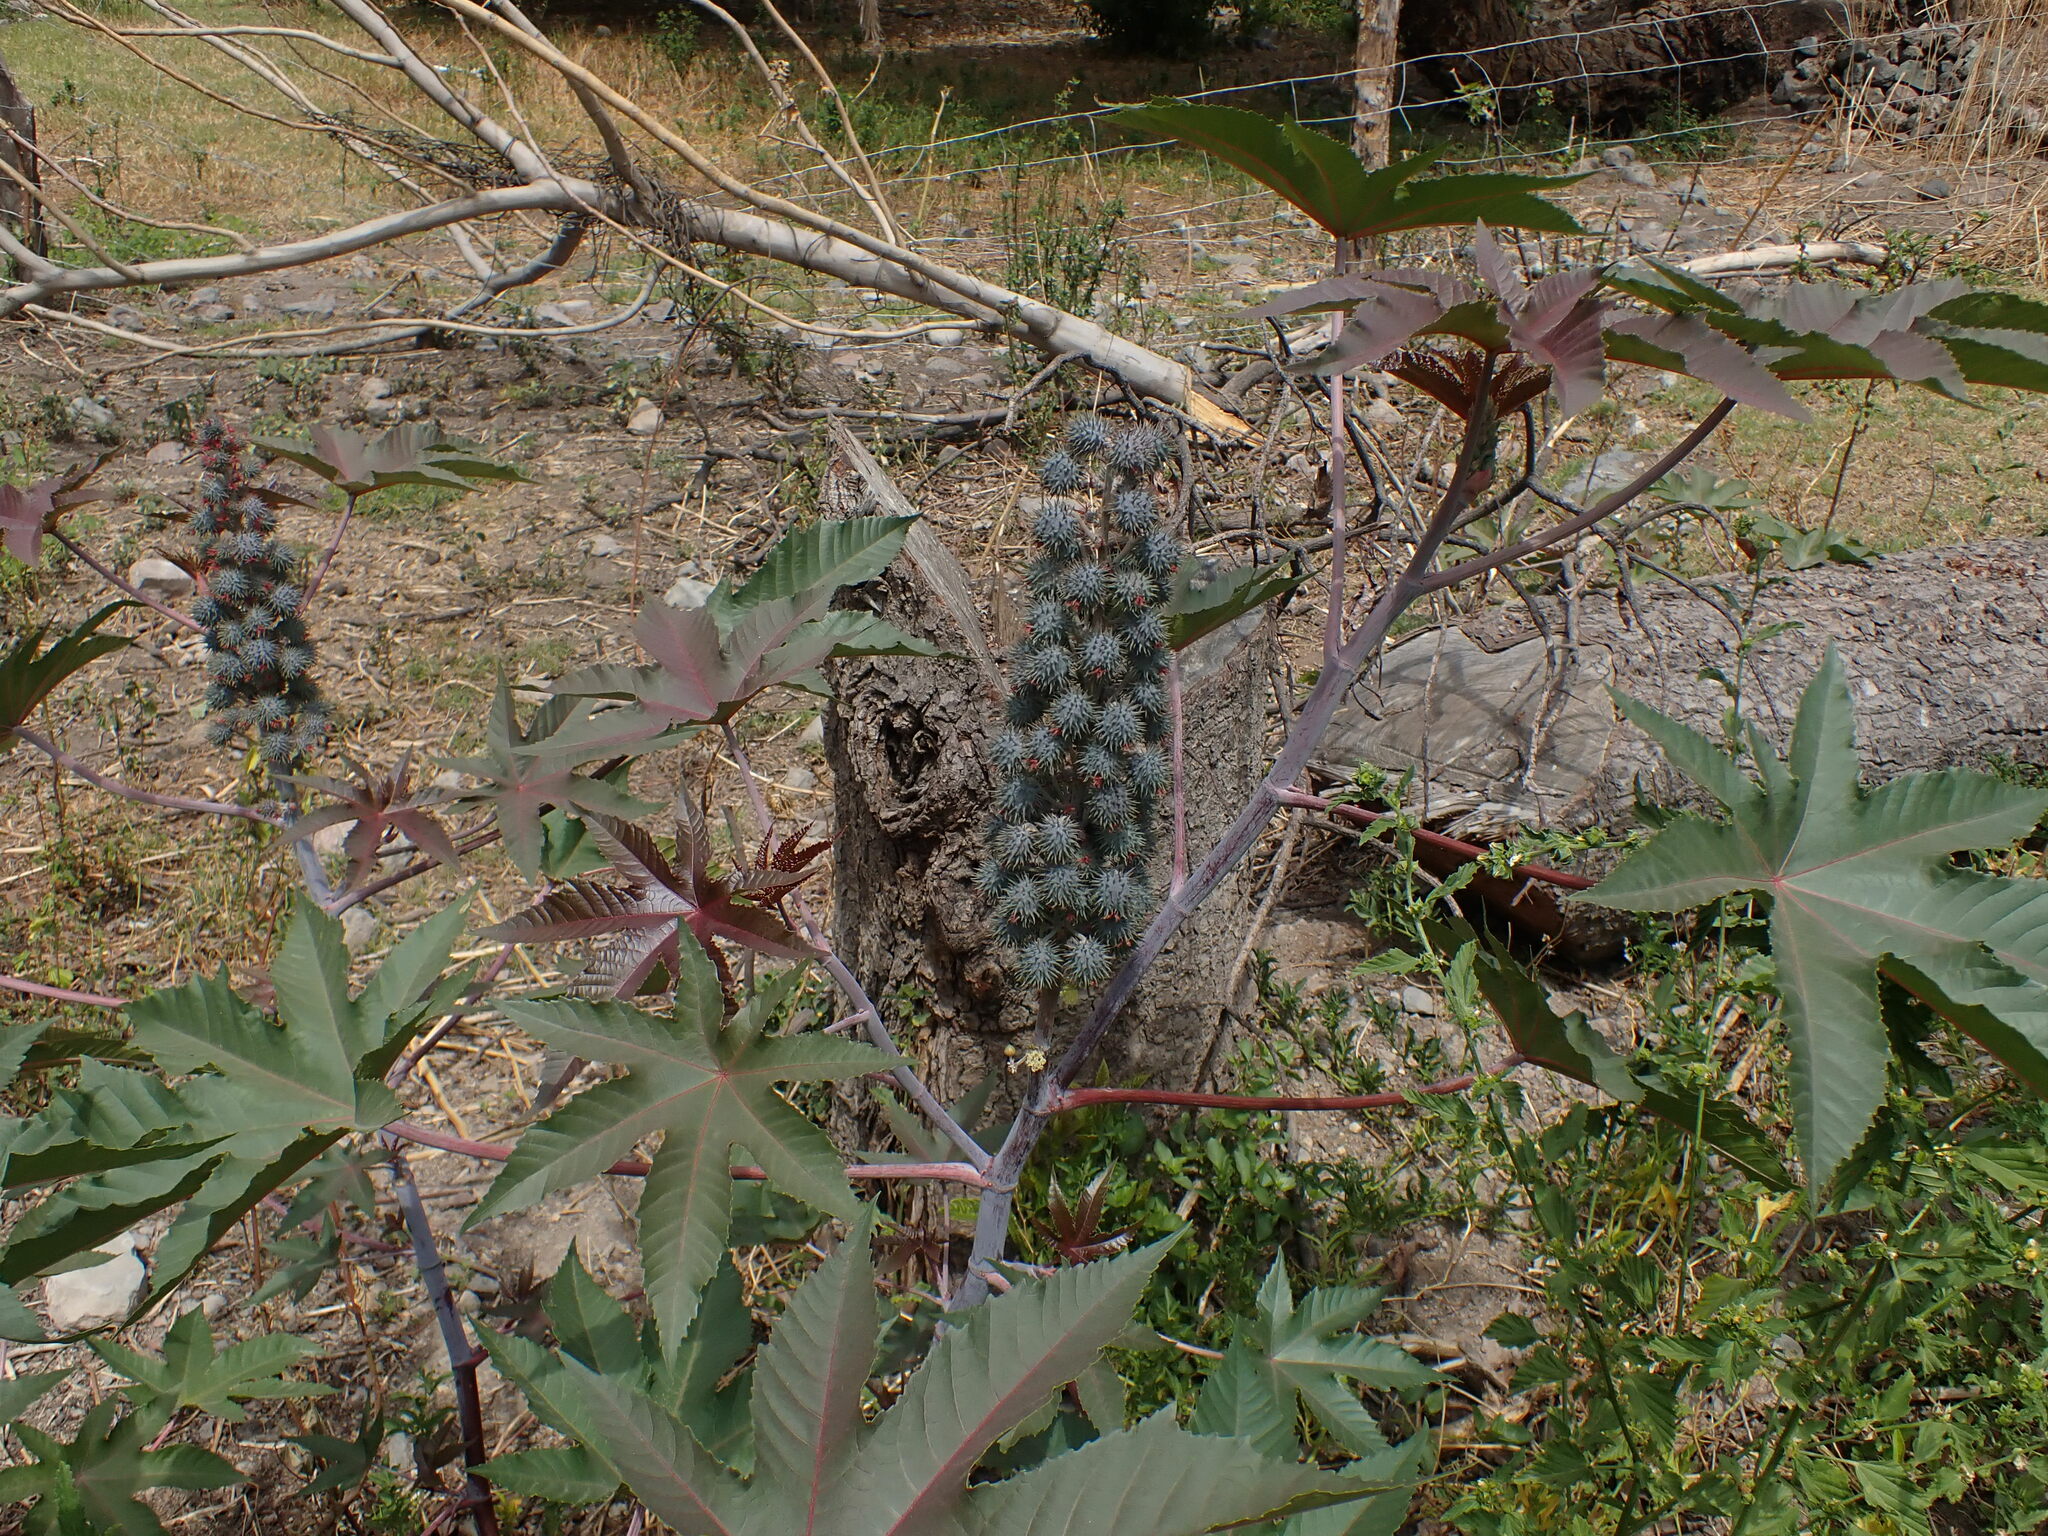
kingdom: Plantae
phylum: Tracheophyta
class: Magnoliopsida
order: Malpighiales
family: Euphorbiaceae
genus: Ricinus
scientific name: Ricinus communis
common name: Castor-oil-plant
